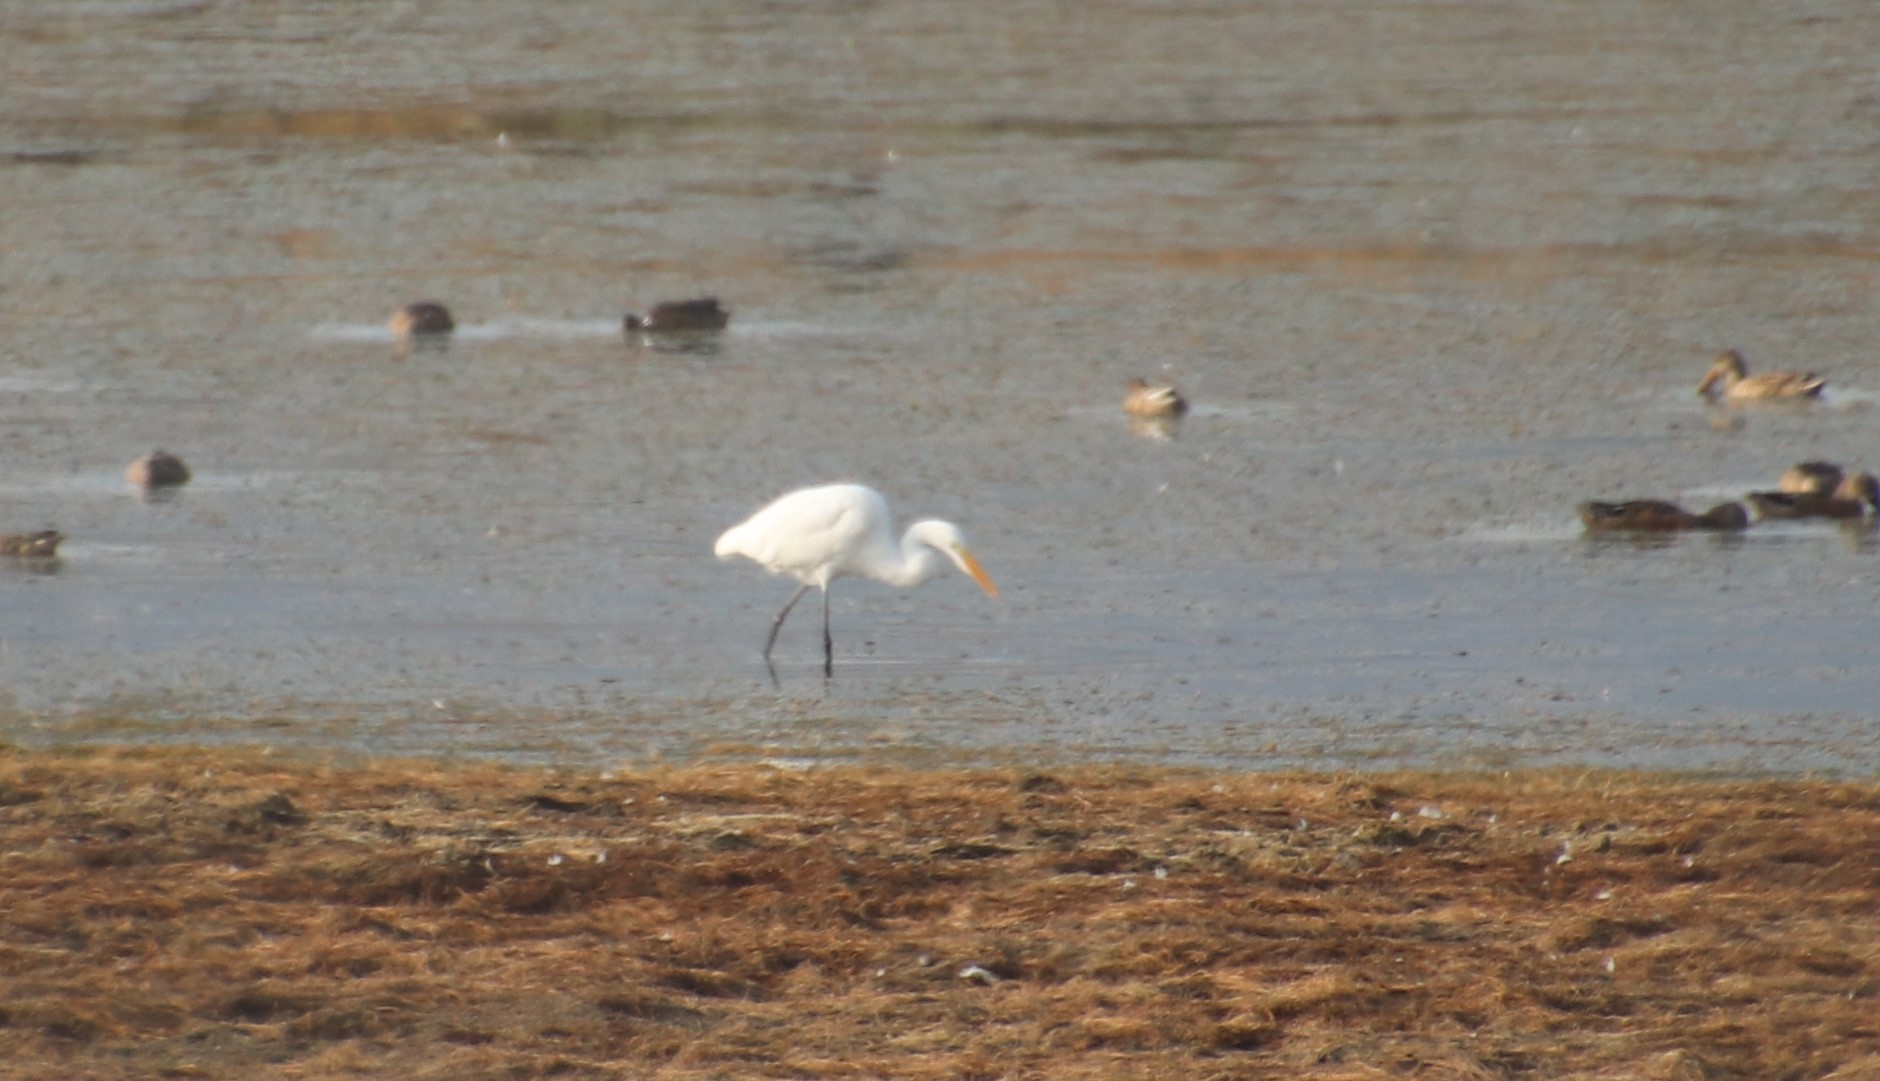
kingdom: Animalia
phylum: Chordata
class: Aves
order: Pelecaniformes
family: Ardeidae
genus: Ardea
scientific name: Ardea alba
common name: Great egret
